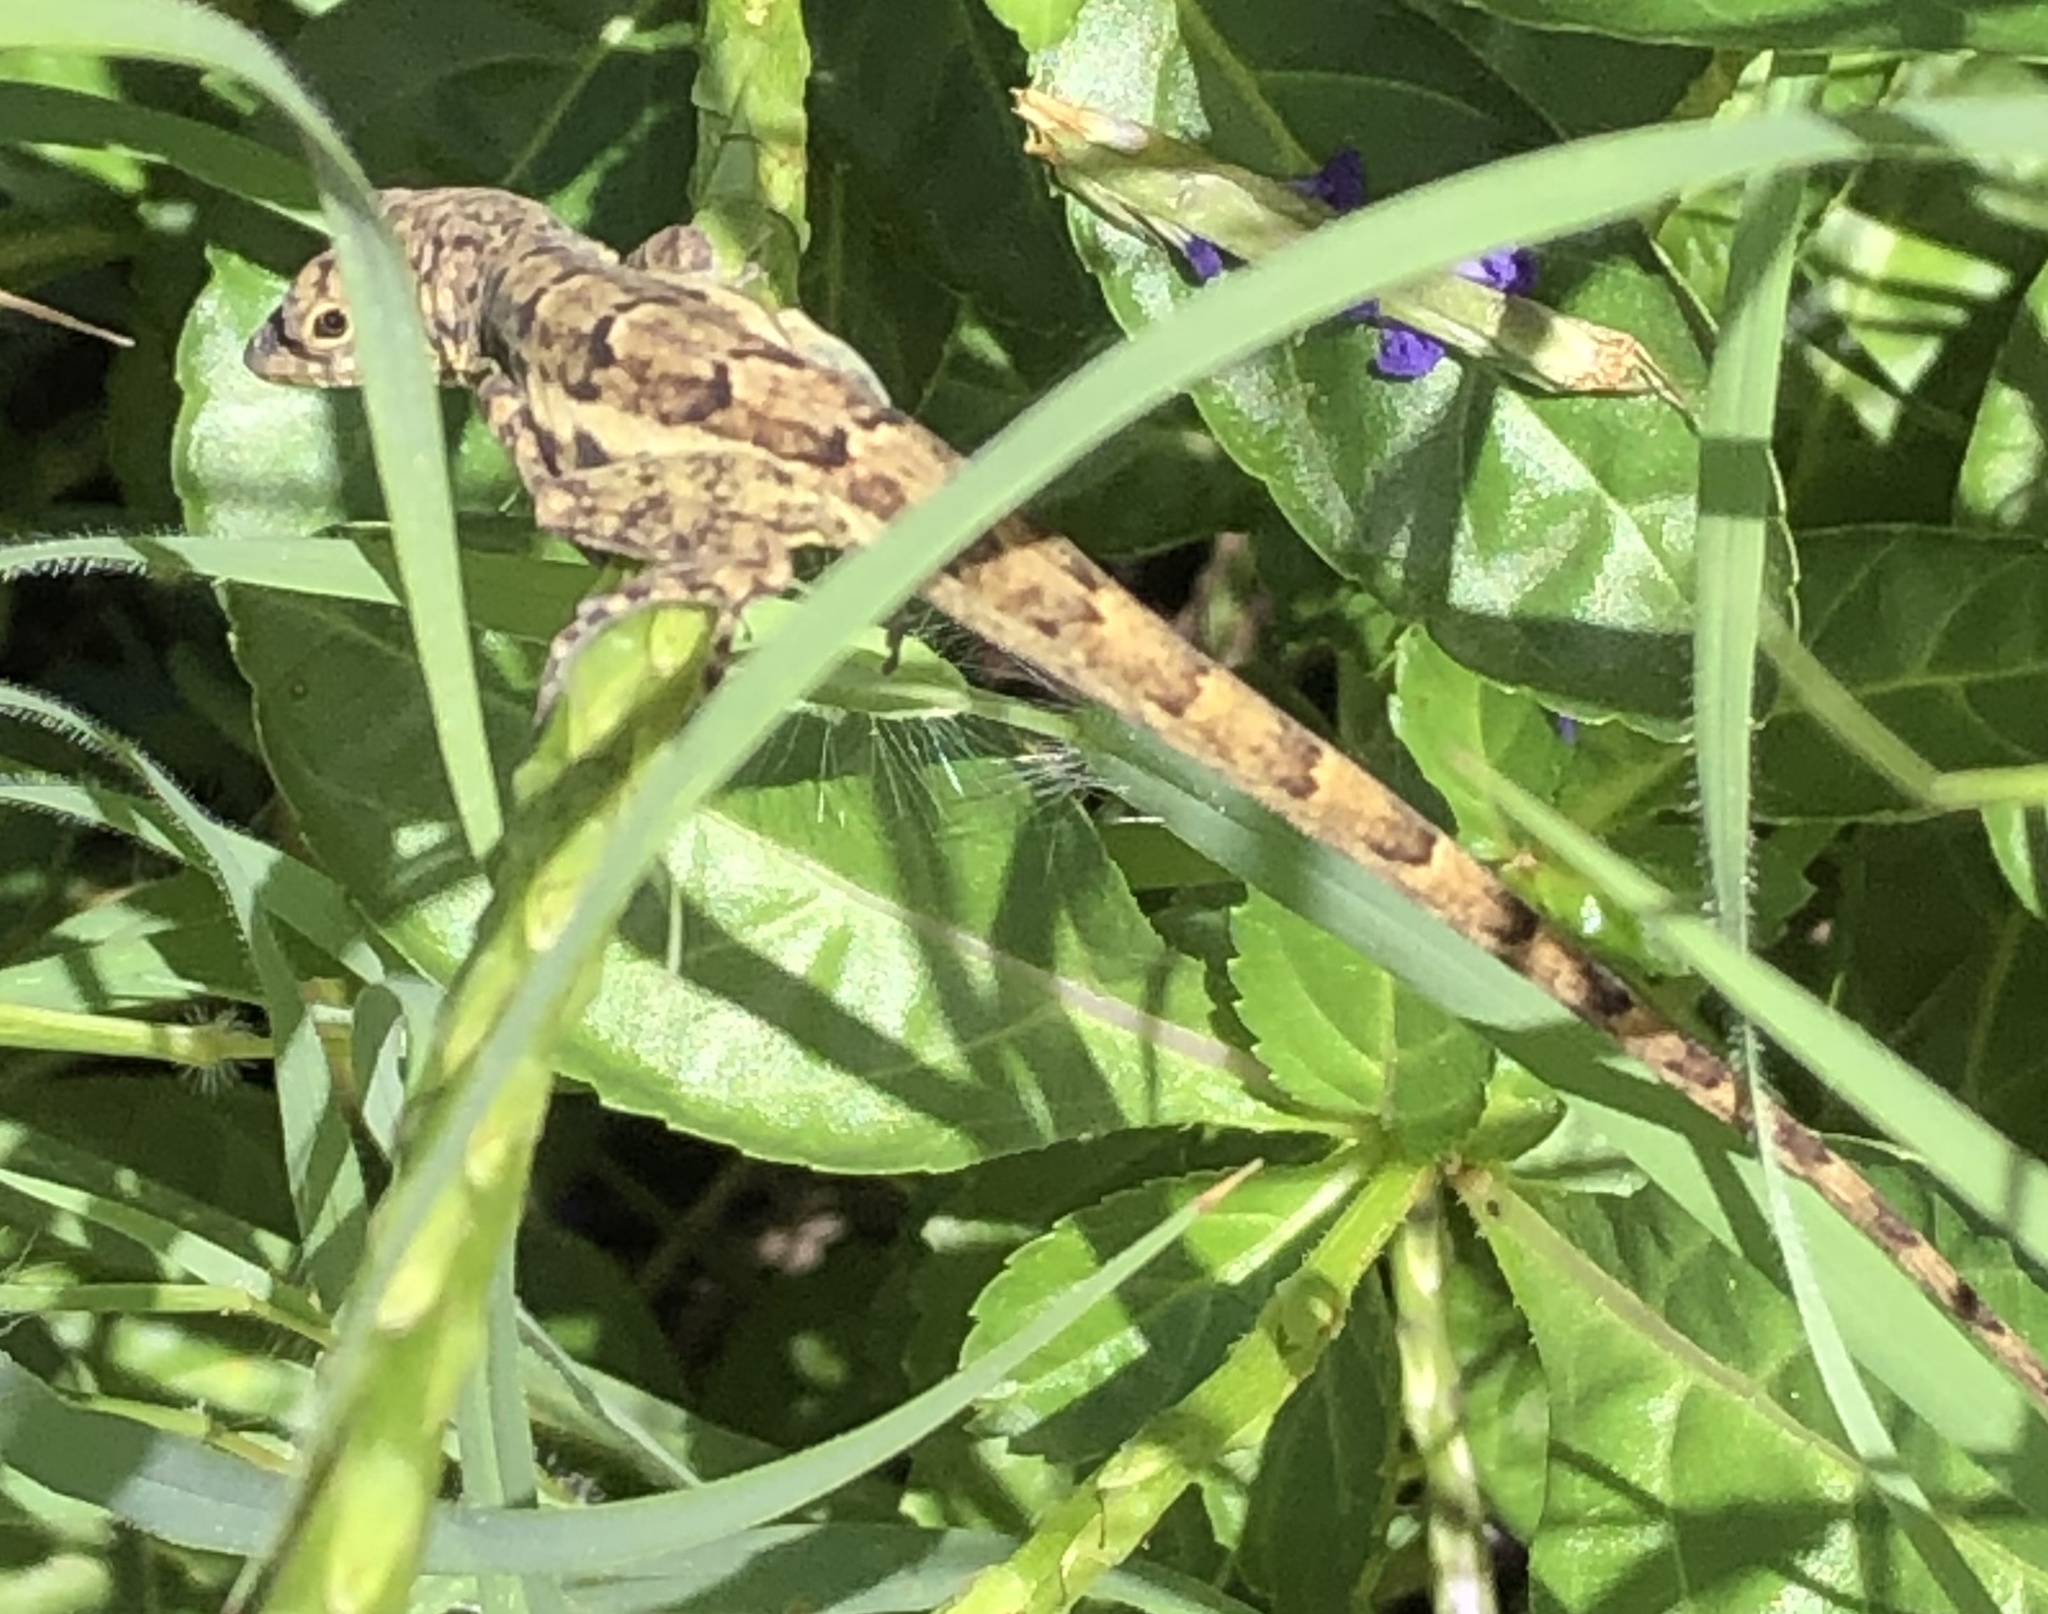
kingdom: Animalia
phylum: Chordata
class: Squamata
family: Dactyloidae
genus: Anolis
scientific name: Anolis bonairensis
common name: Ruthven's anole
